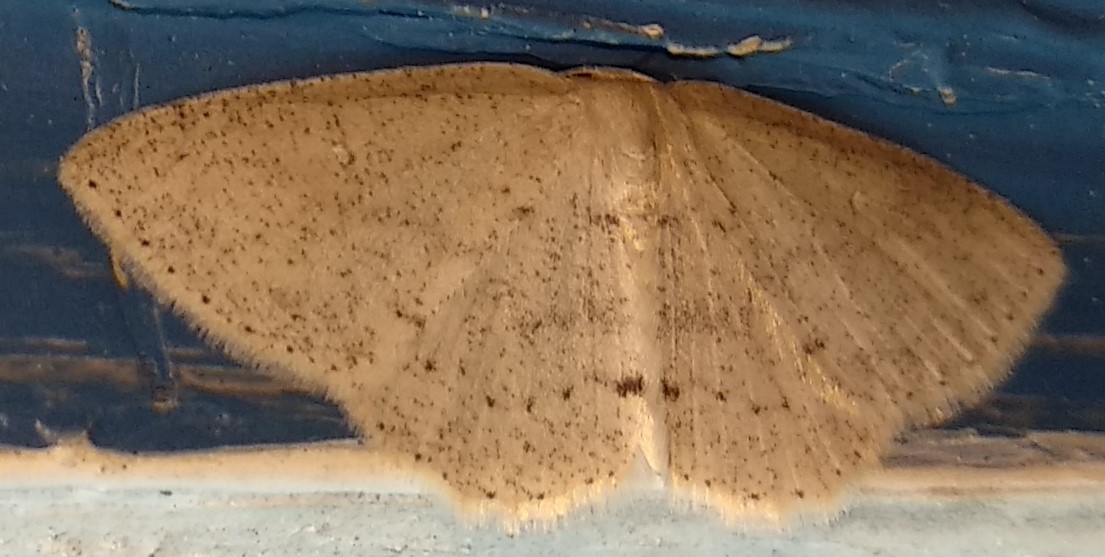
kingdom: Animalia
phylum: Arthropoda
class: Insecta
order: Lepidoptera
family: Geometridae
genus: Cyclophora
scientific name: Cyclophora pendulinaria
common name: Sweet fern geometer
